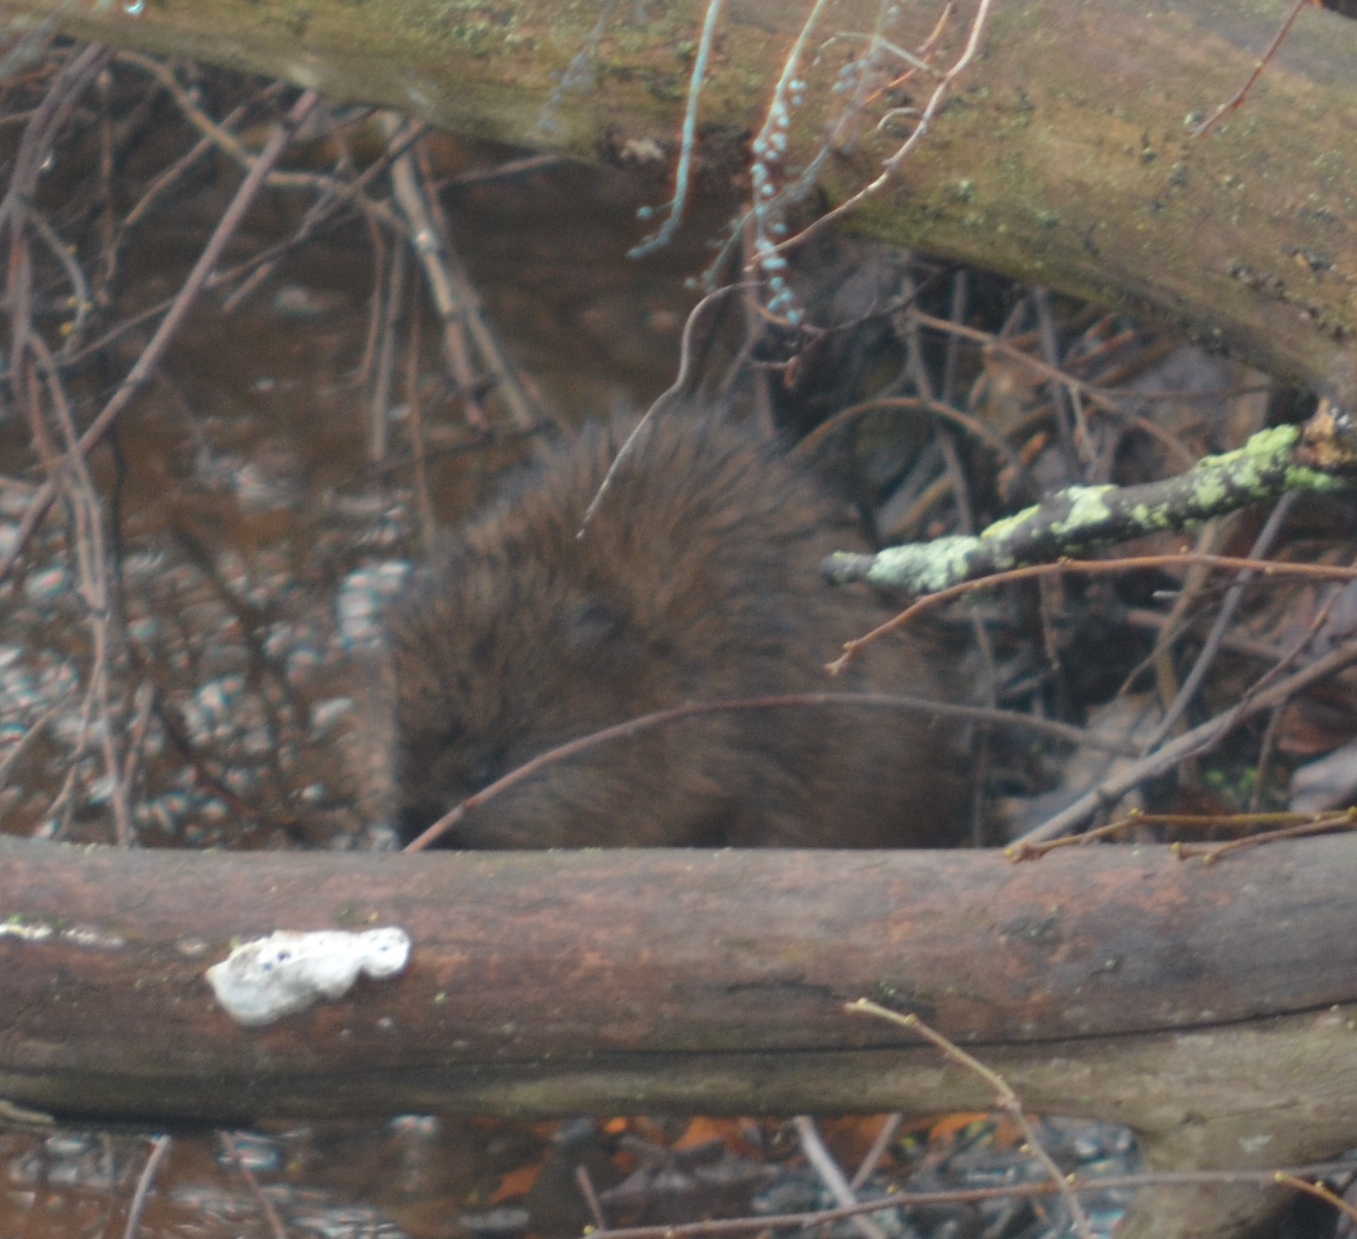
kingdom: Animalia
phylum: Chordata
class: Mammalia
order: Rodentia
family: Cricetidae
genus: Ondatra
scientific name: Ondatra zibethicus
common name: Muskrat
